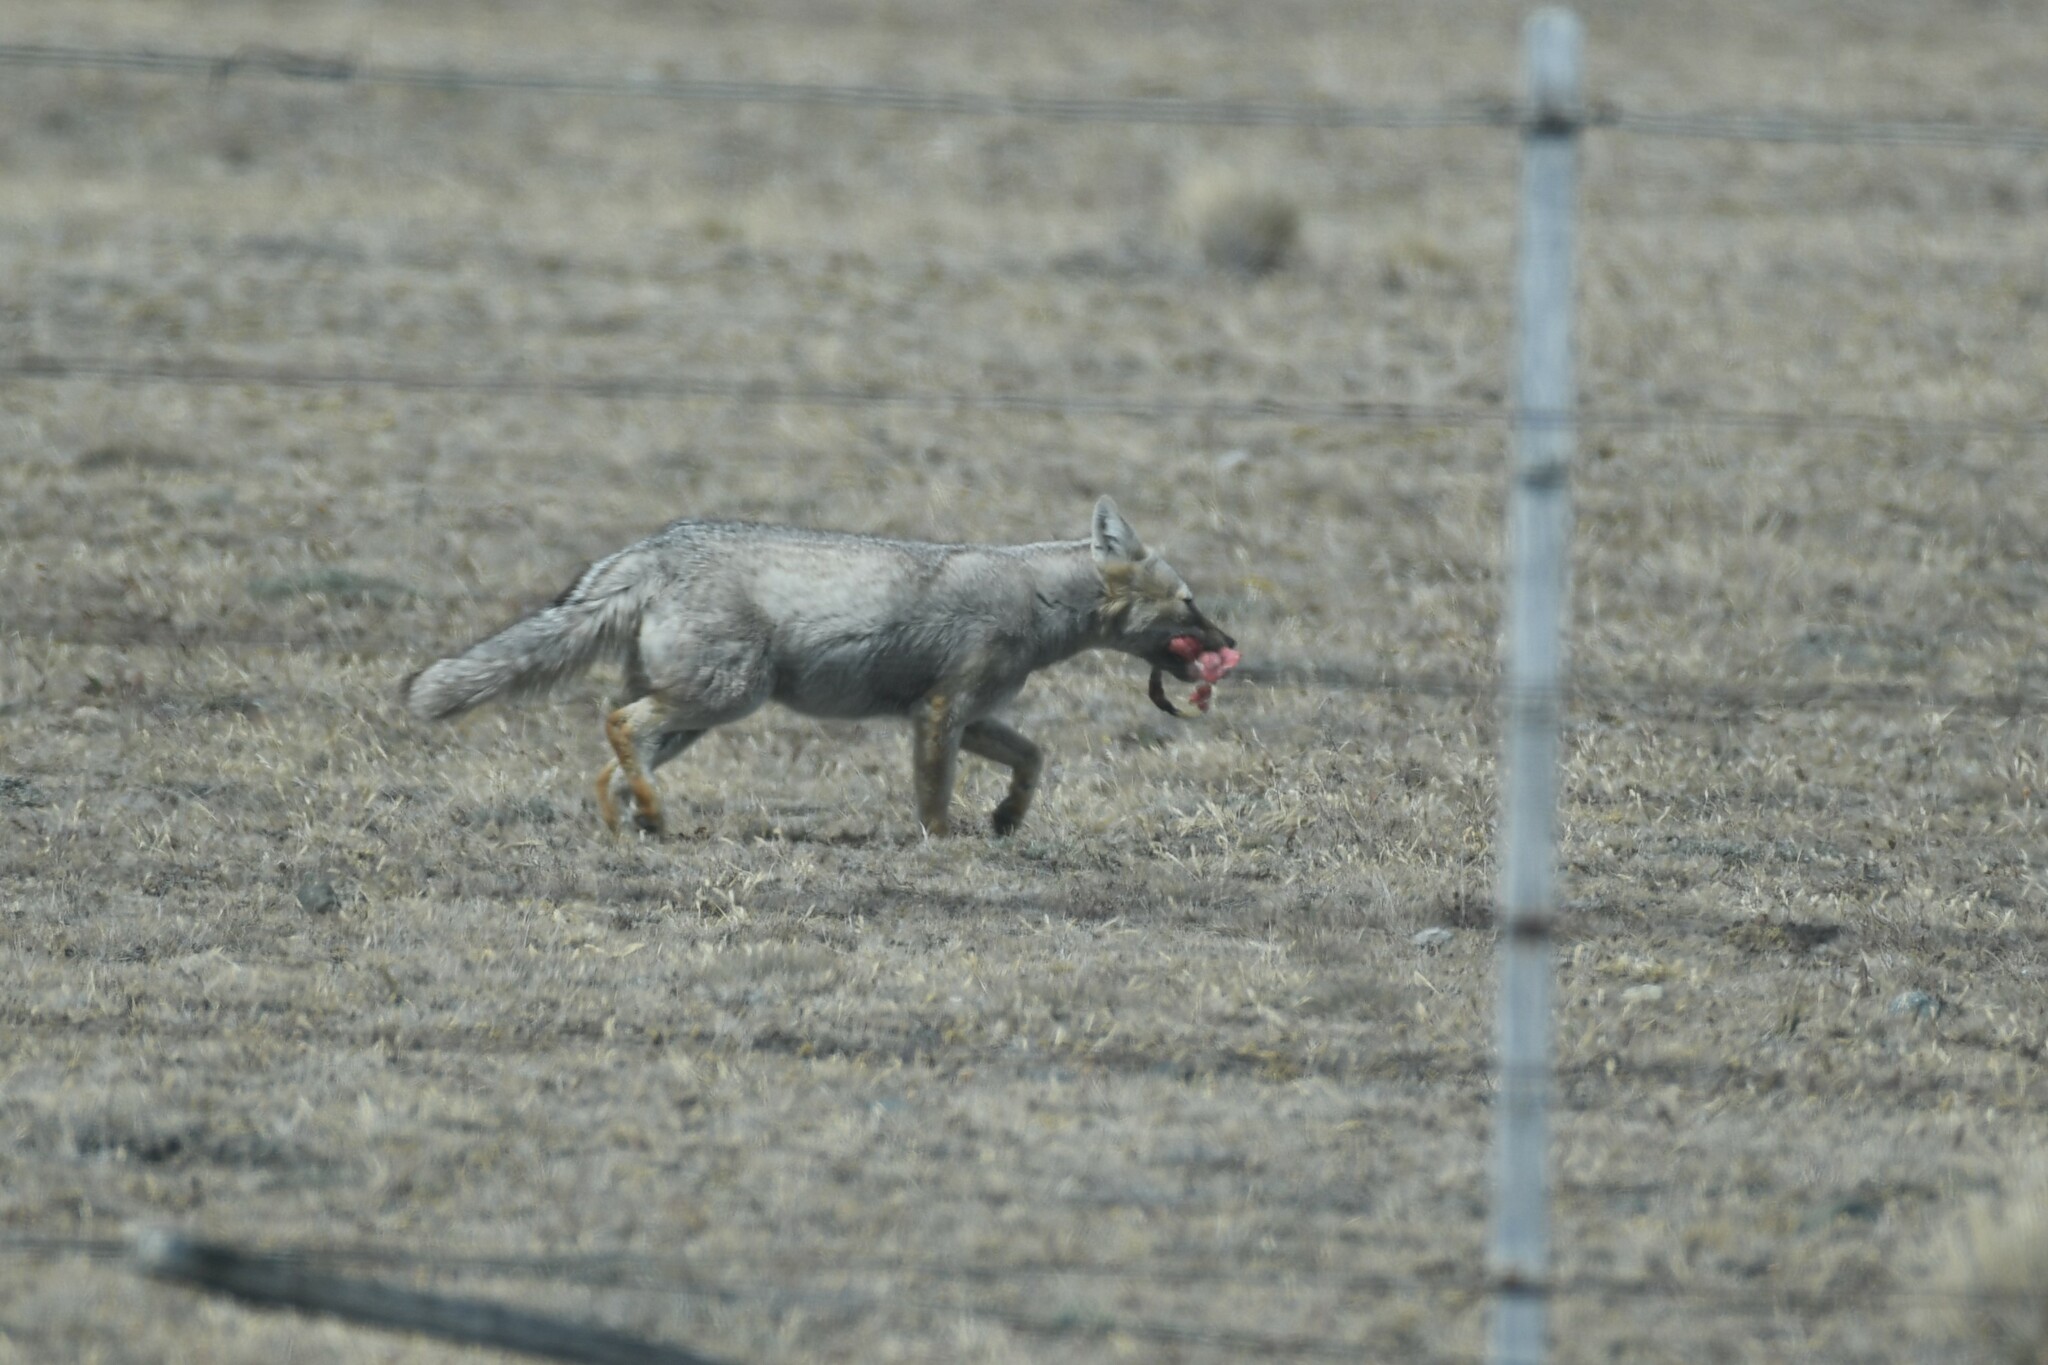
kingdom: Animalia
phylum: Chordata
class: Mammalia
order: Carnivora
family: Canidae
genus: Lycalopex
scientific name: Lycalopex gymnocercus
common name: Pampas fox
